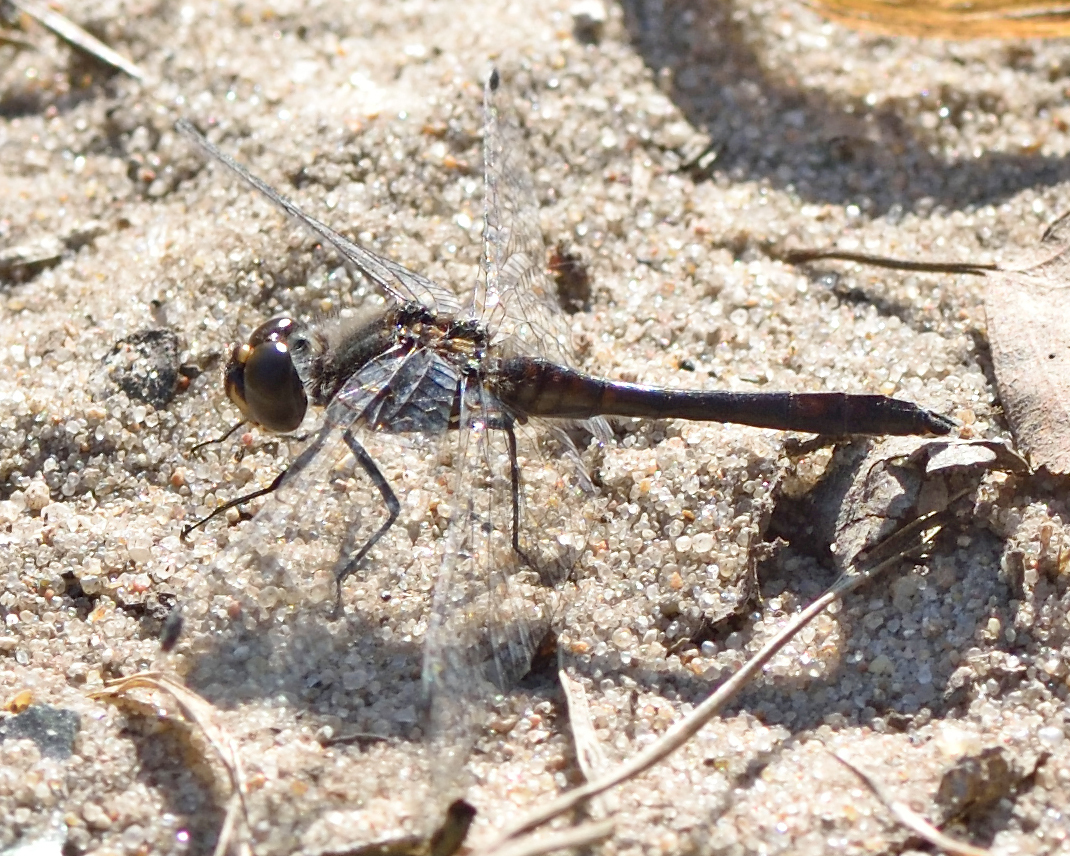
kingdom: Animalia
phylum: Arthropoda
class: Insecta
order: Odonata
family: Libellulidae
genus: Sympetrum
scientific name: Sympetrum danae
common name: Black darter
